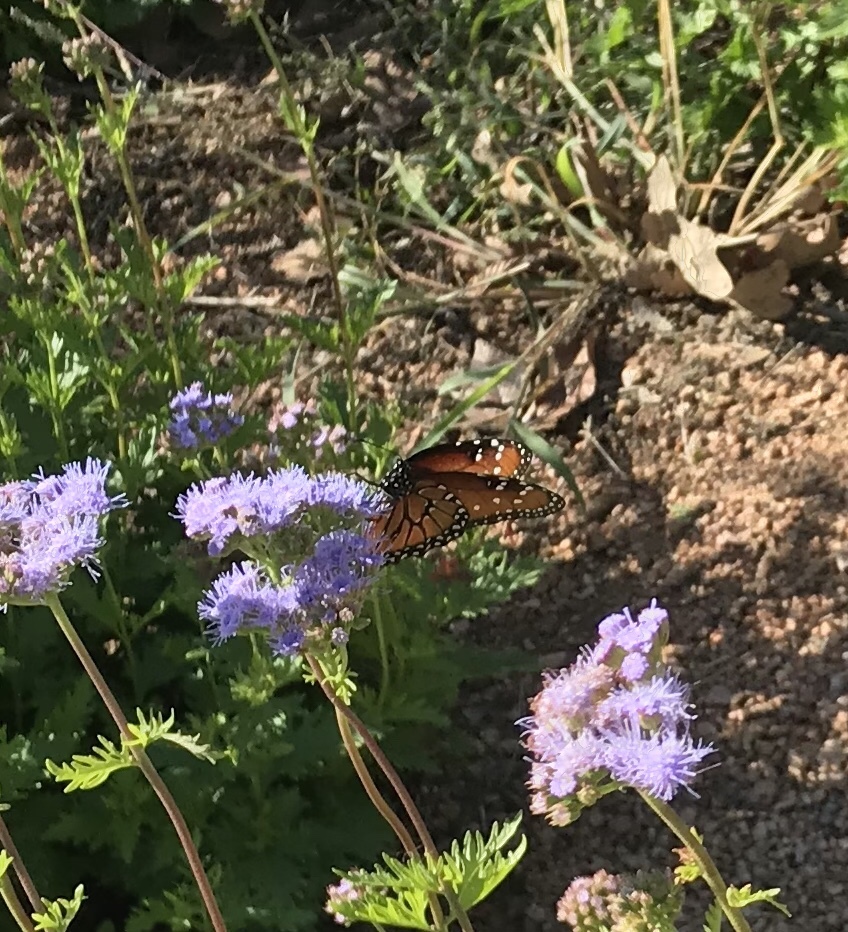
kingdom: Animalia
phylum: Arthropoda
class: Insecta
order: Lepidoptera
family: Nymphalidae
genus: Danaus
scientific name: Danaus gilippus
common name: Queen
